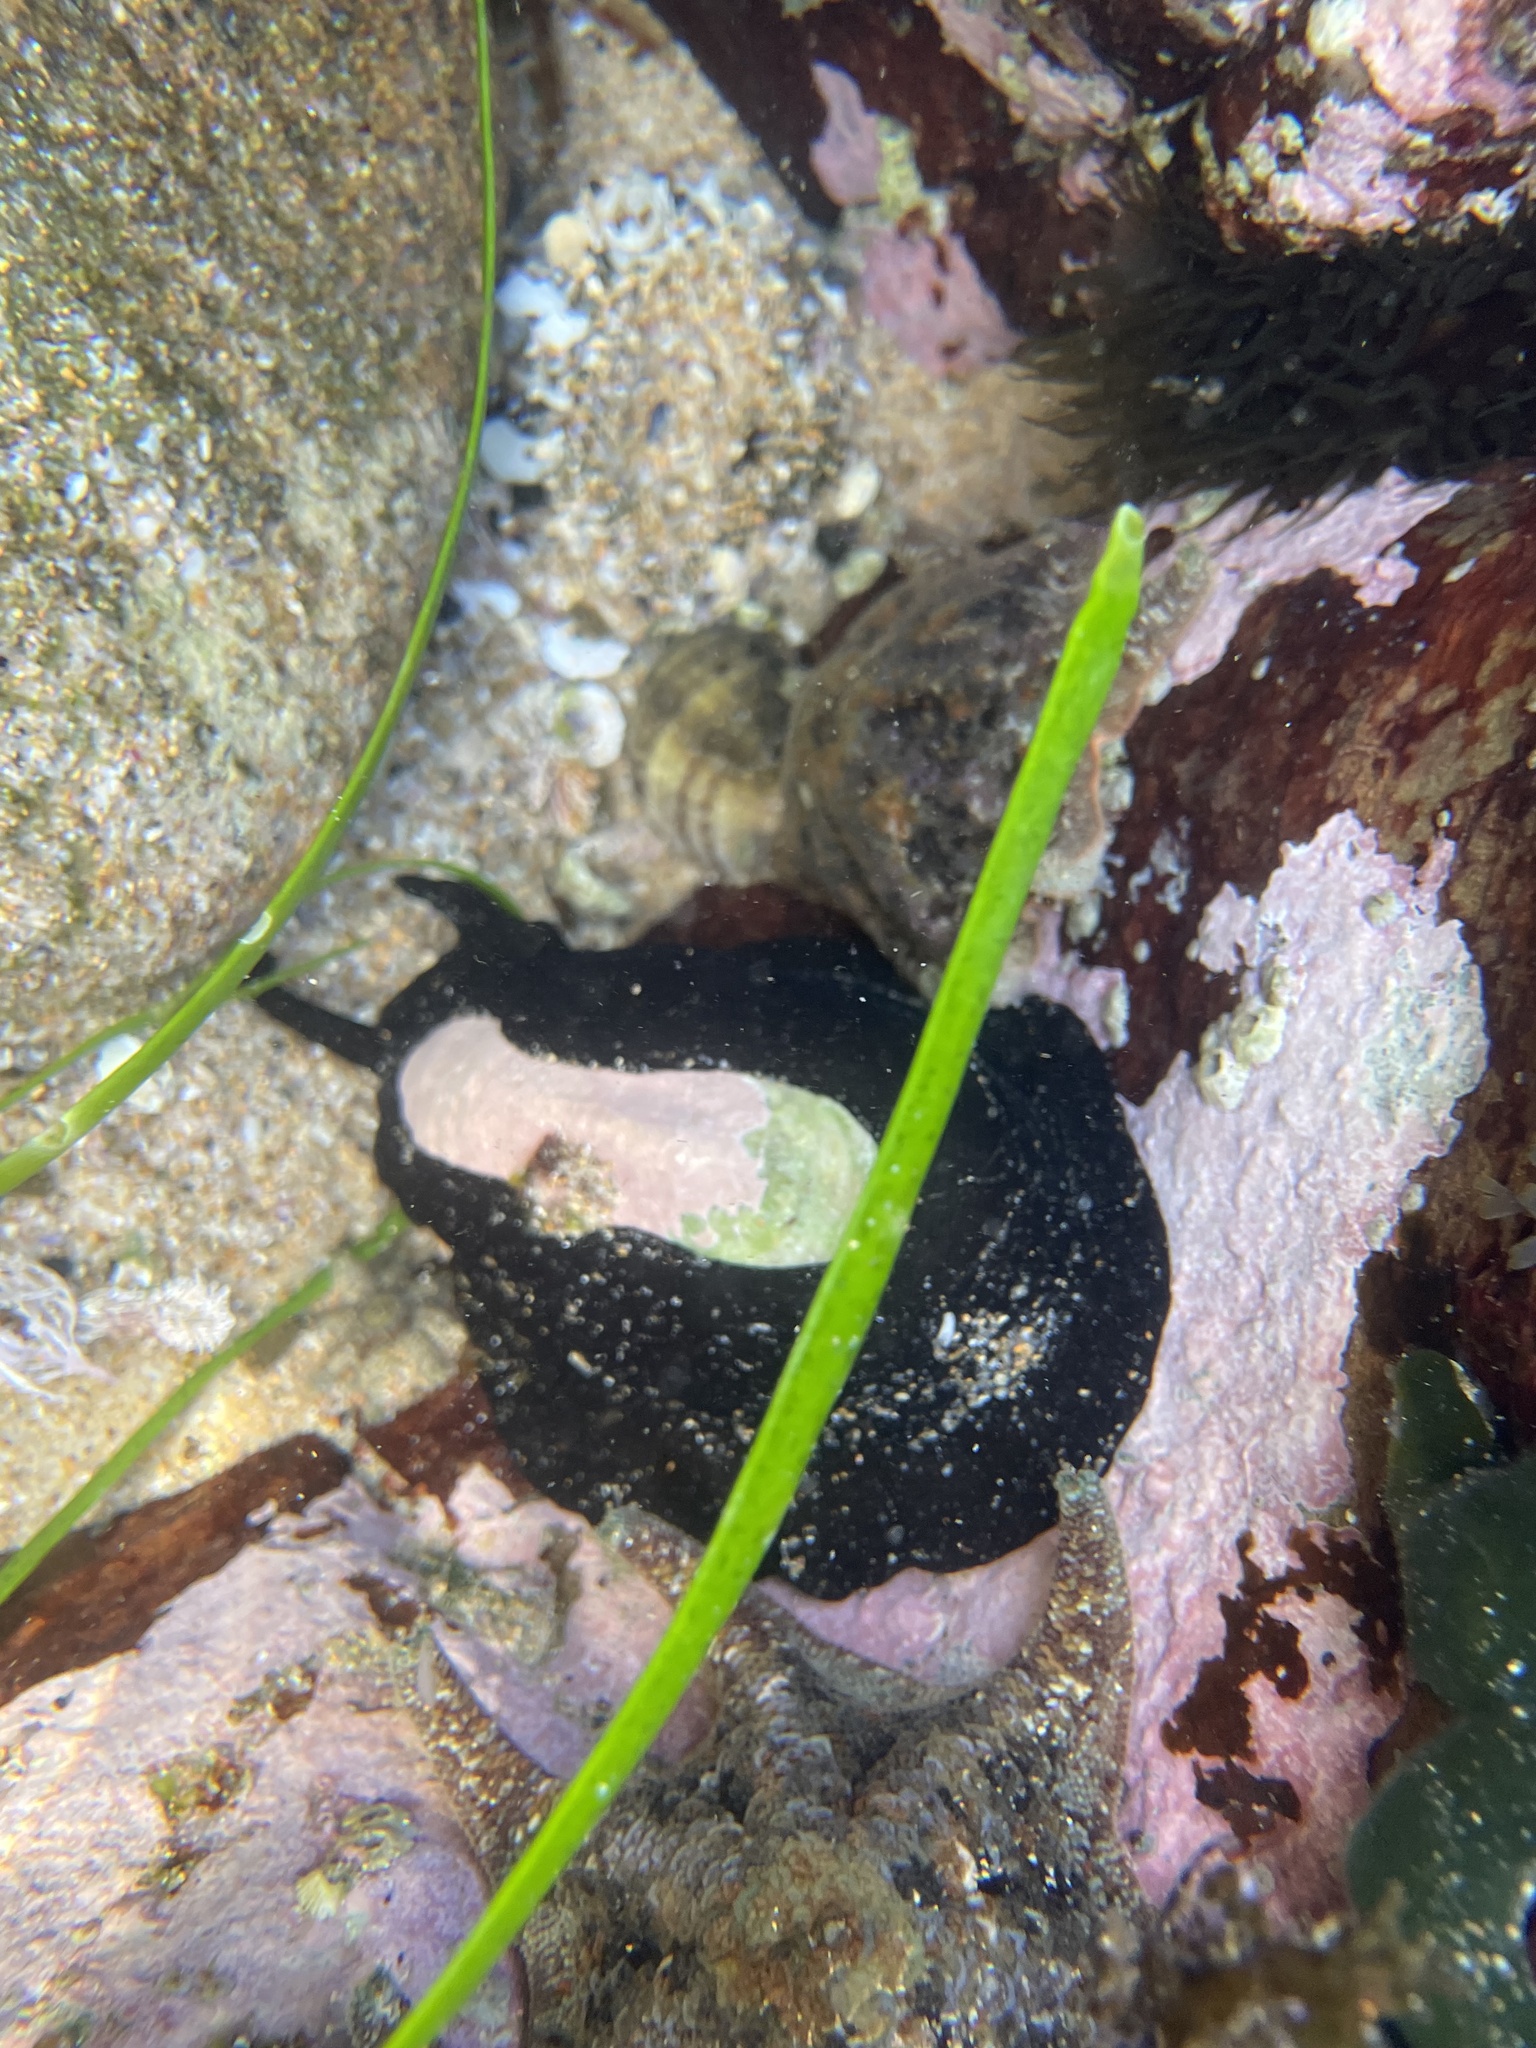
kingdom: Animalia
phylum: Mollusca
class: Gastropoda
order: Lepetellida
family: Fissurellidae
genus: Scutus
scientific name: Scutus antipodes
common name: Duckbill shell
